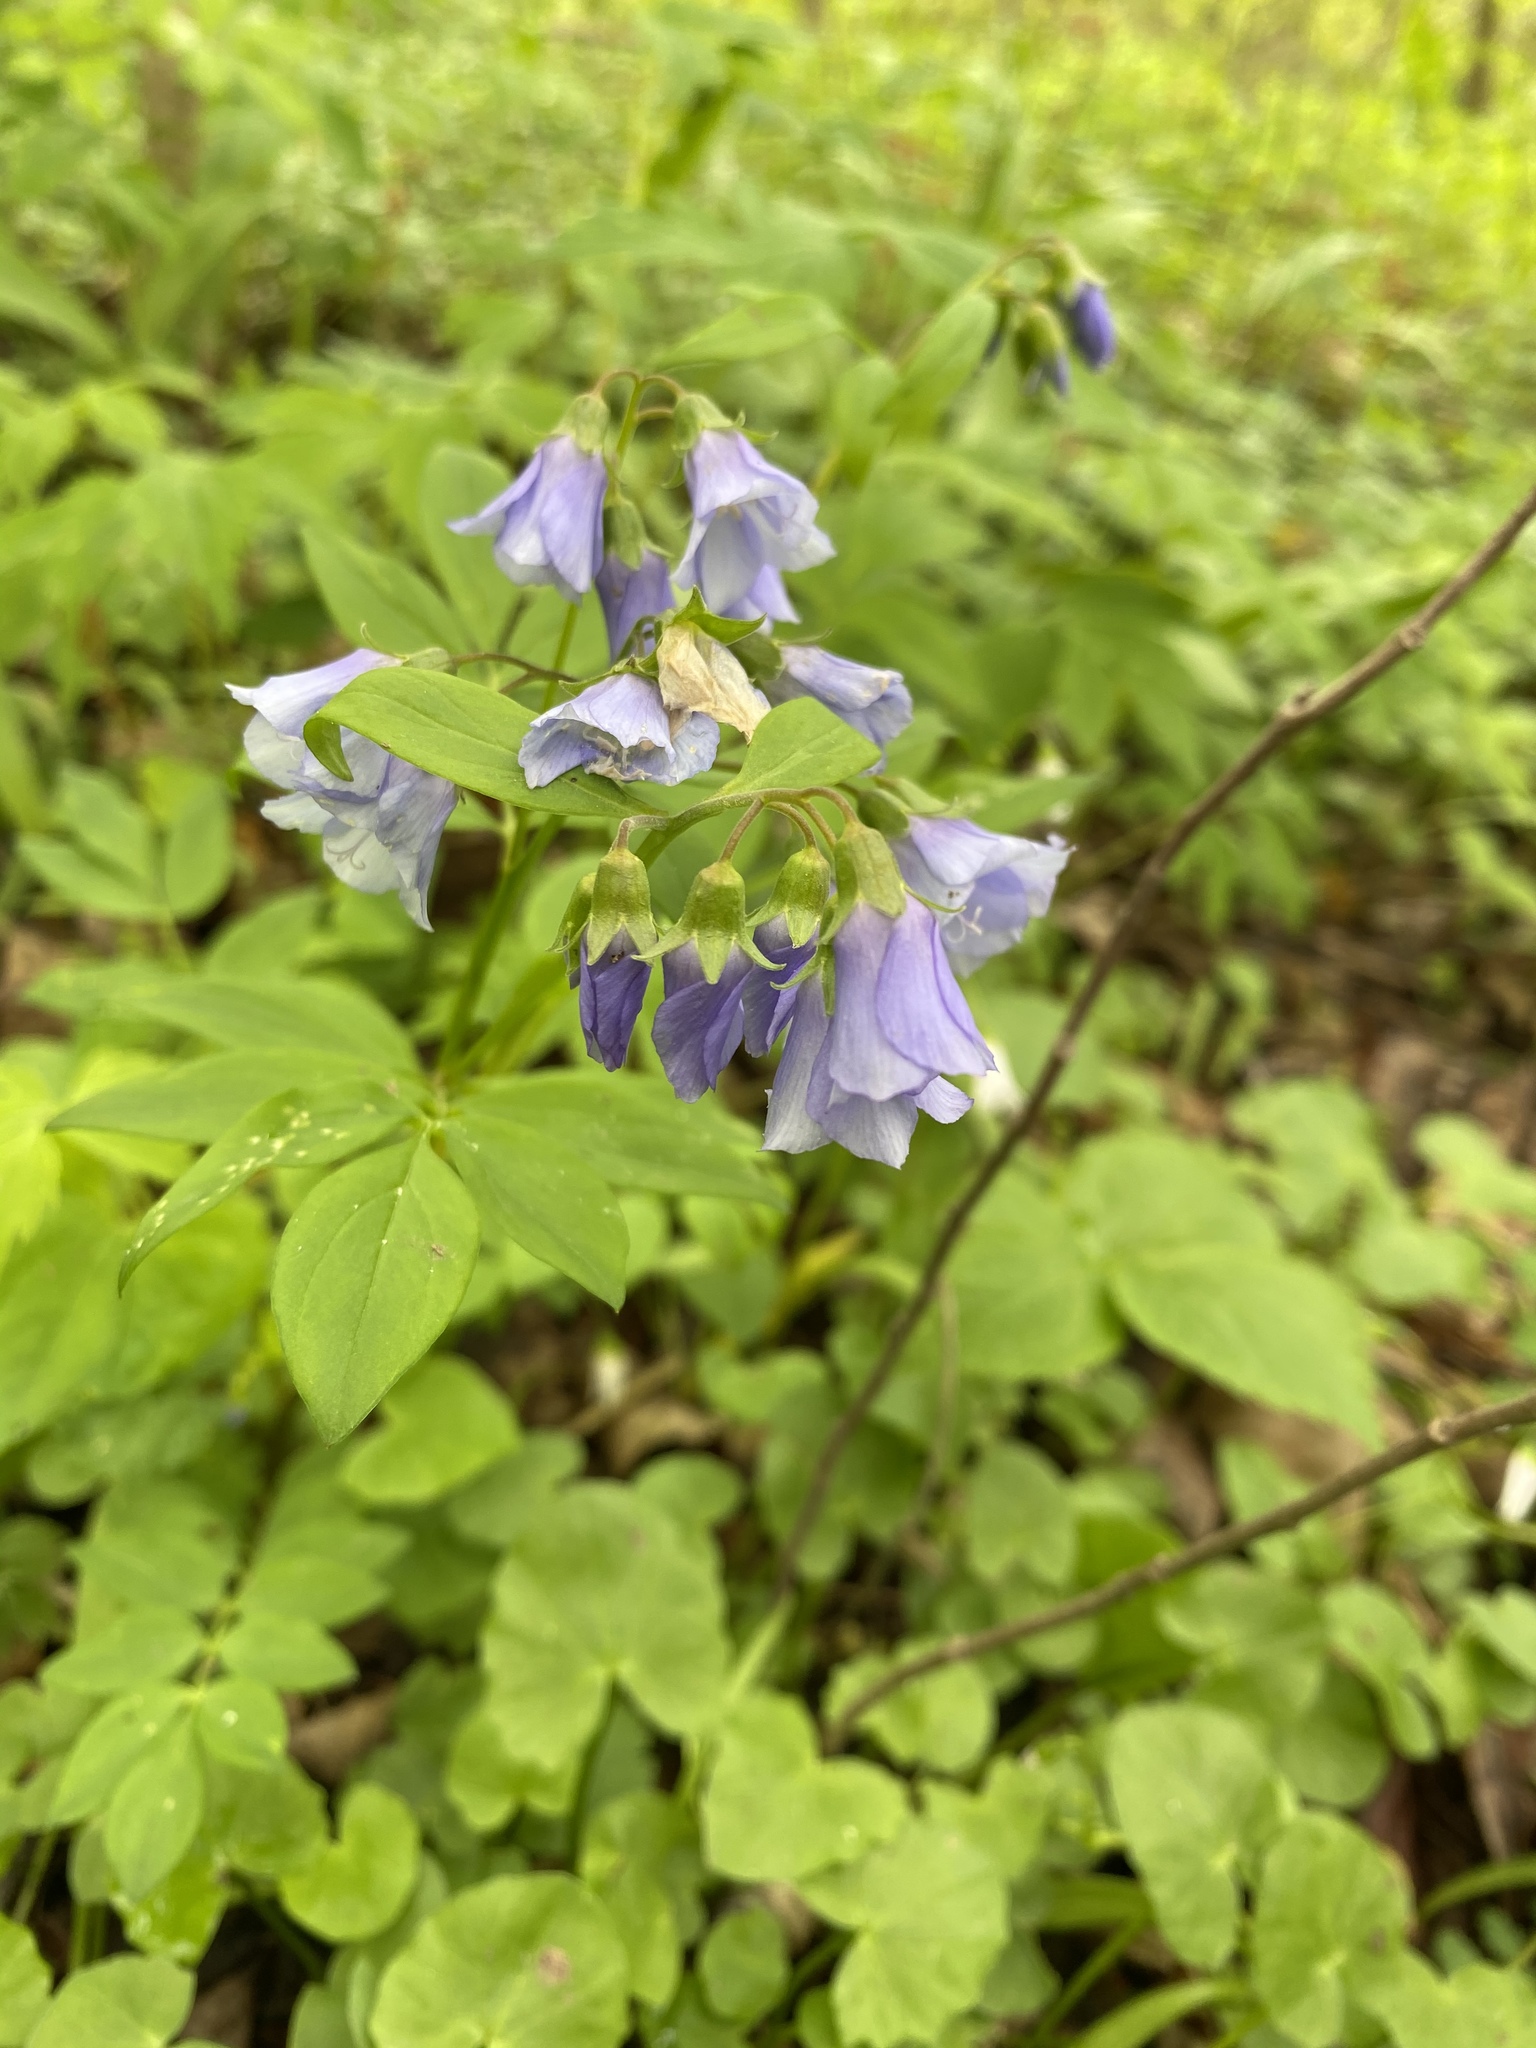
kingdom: Plantae
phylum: Tracheophyta
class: Magnoliopsida
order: Ericales
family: Polemoniaceae
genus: Polemonium
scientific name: Polemonium reptans
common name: Creeping jacob's-ladder
